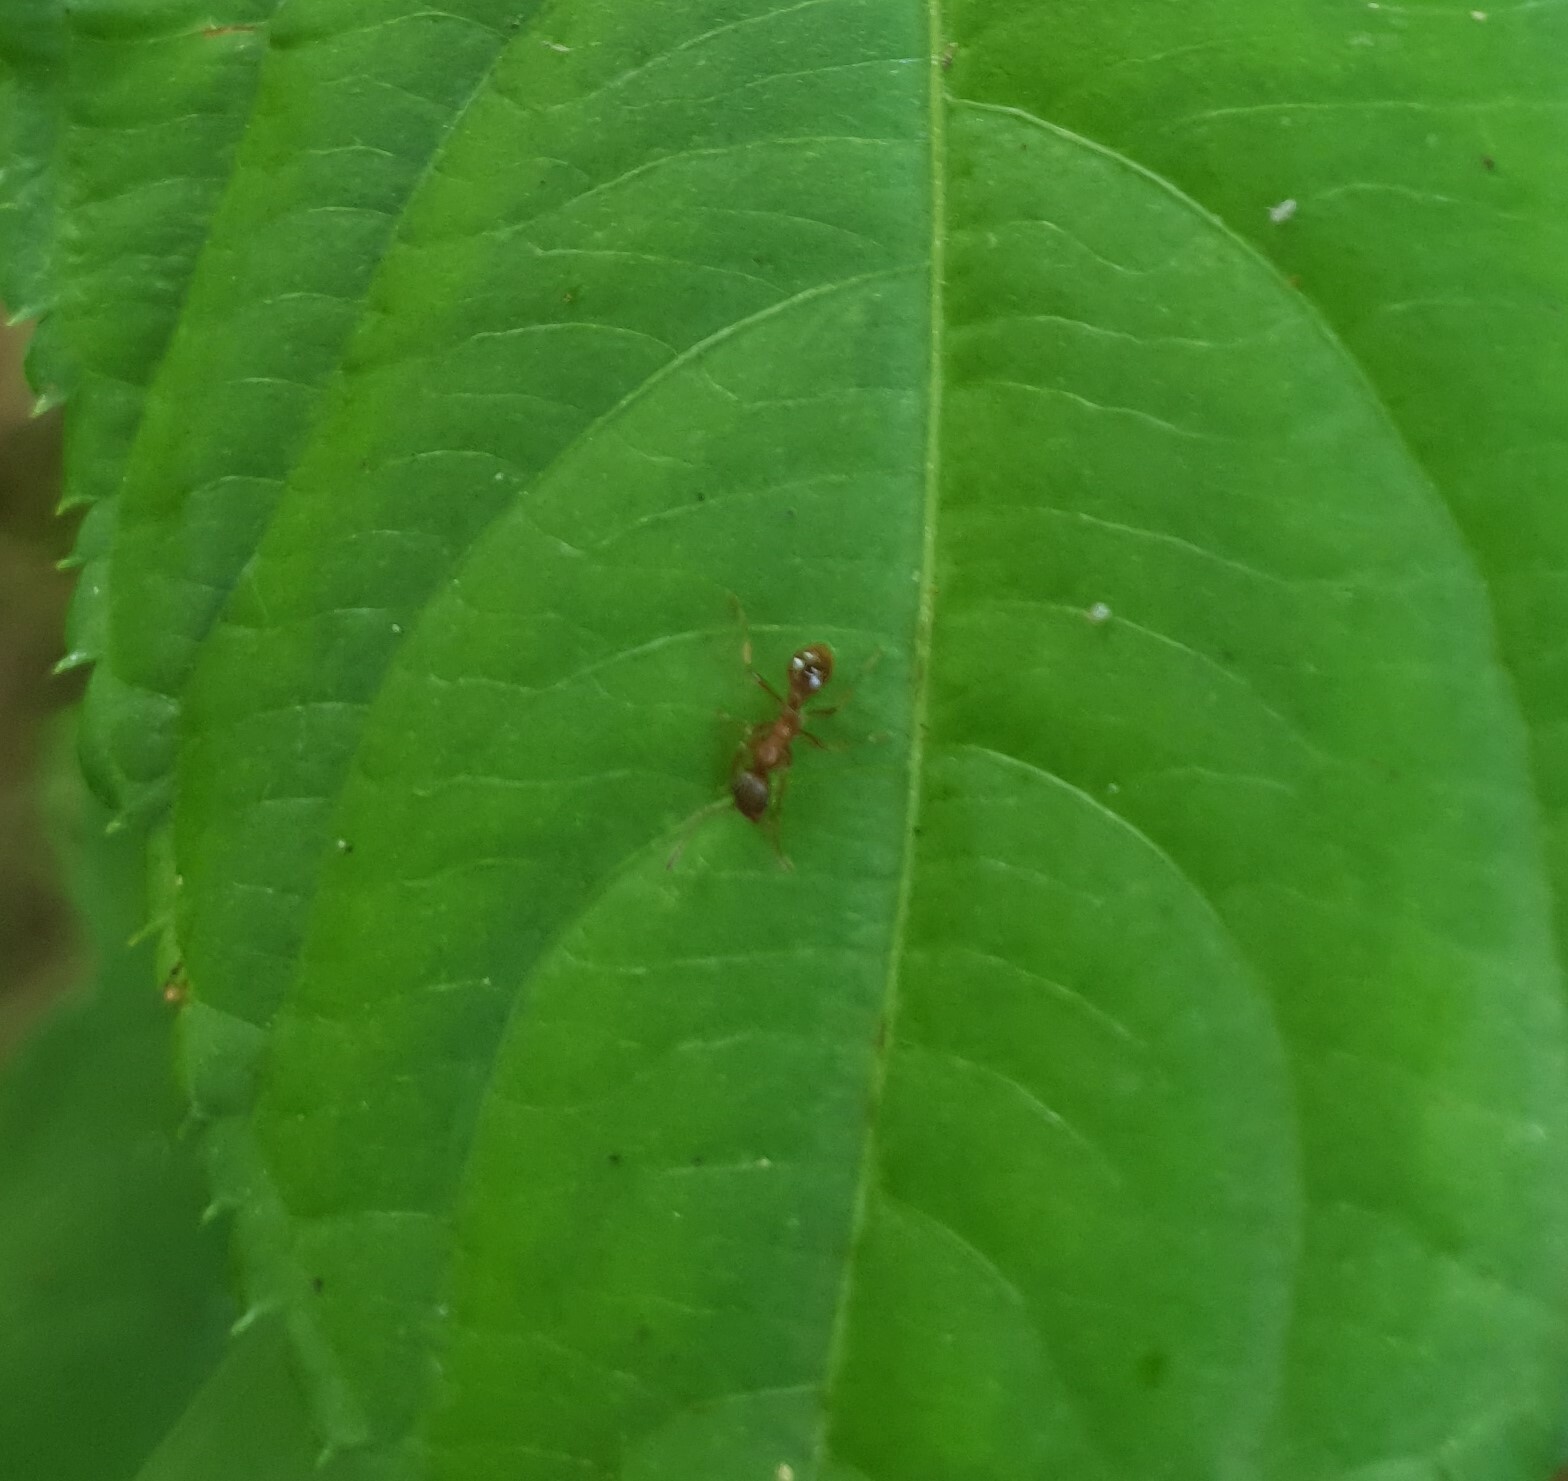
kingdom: Animalia
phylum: Arthropoda
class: Insecta
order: Hymenoptera
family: Formicidae
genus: Myrmica
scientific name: Myrmica
